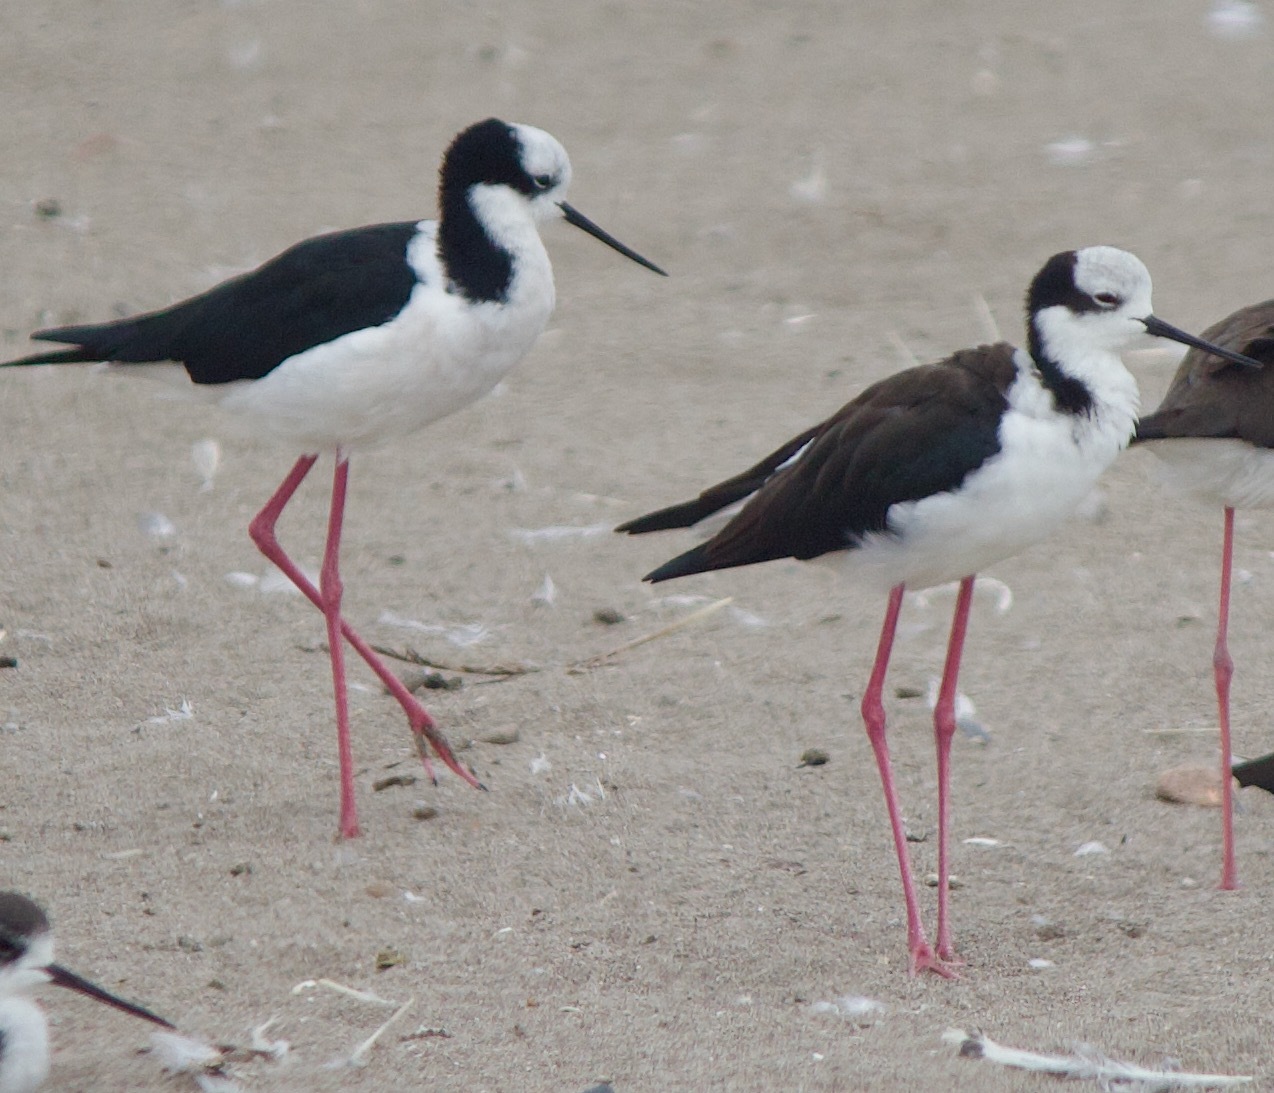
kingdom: Animalia
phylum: Chordata
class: Aves
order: Charadriiformes
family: Recurvirostridae
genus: Himantopus
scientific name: Himantopus mexicanus
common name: Black-necked stilt
